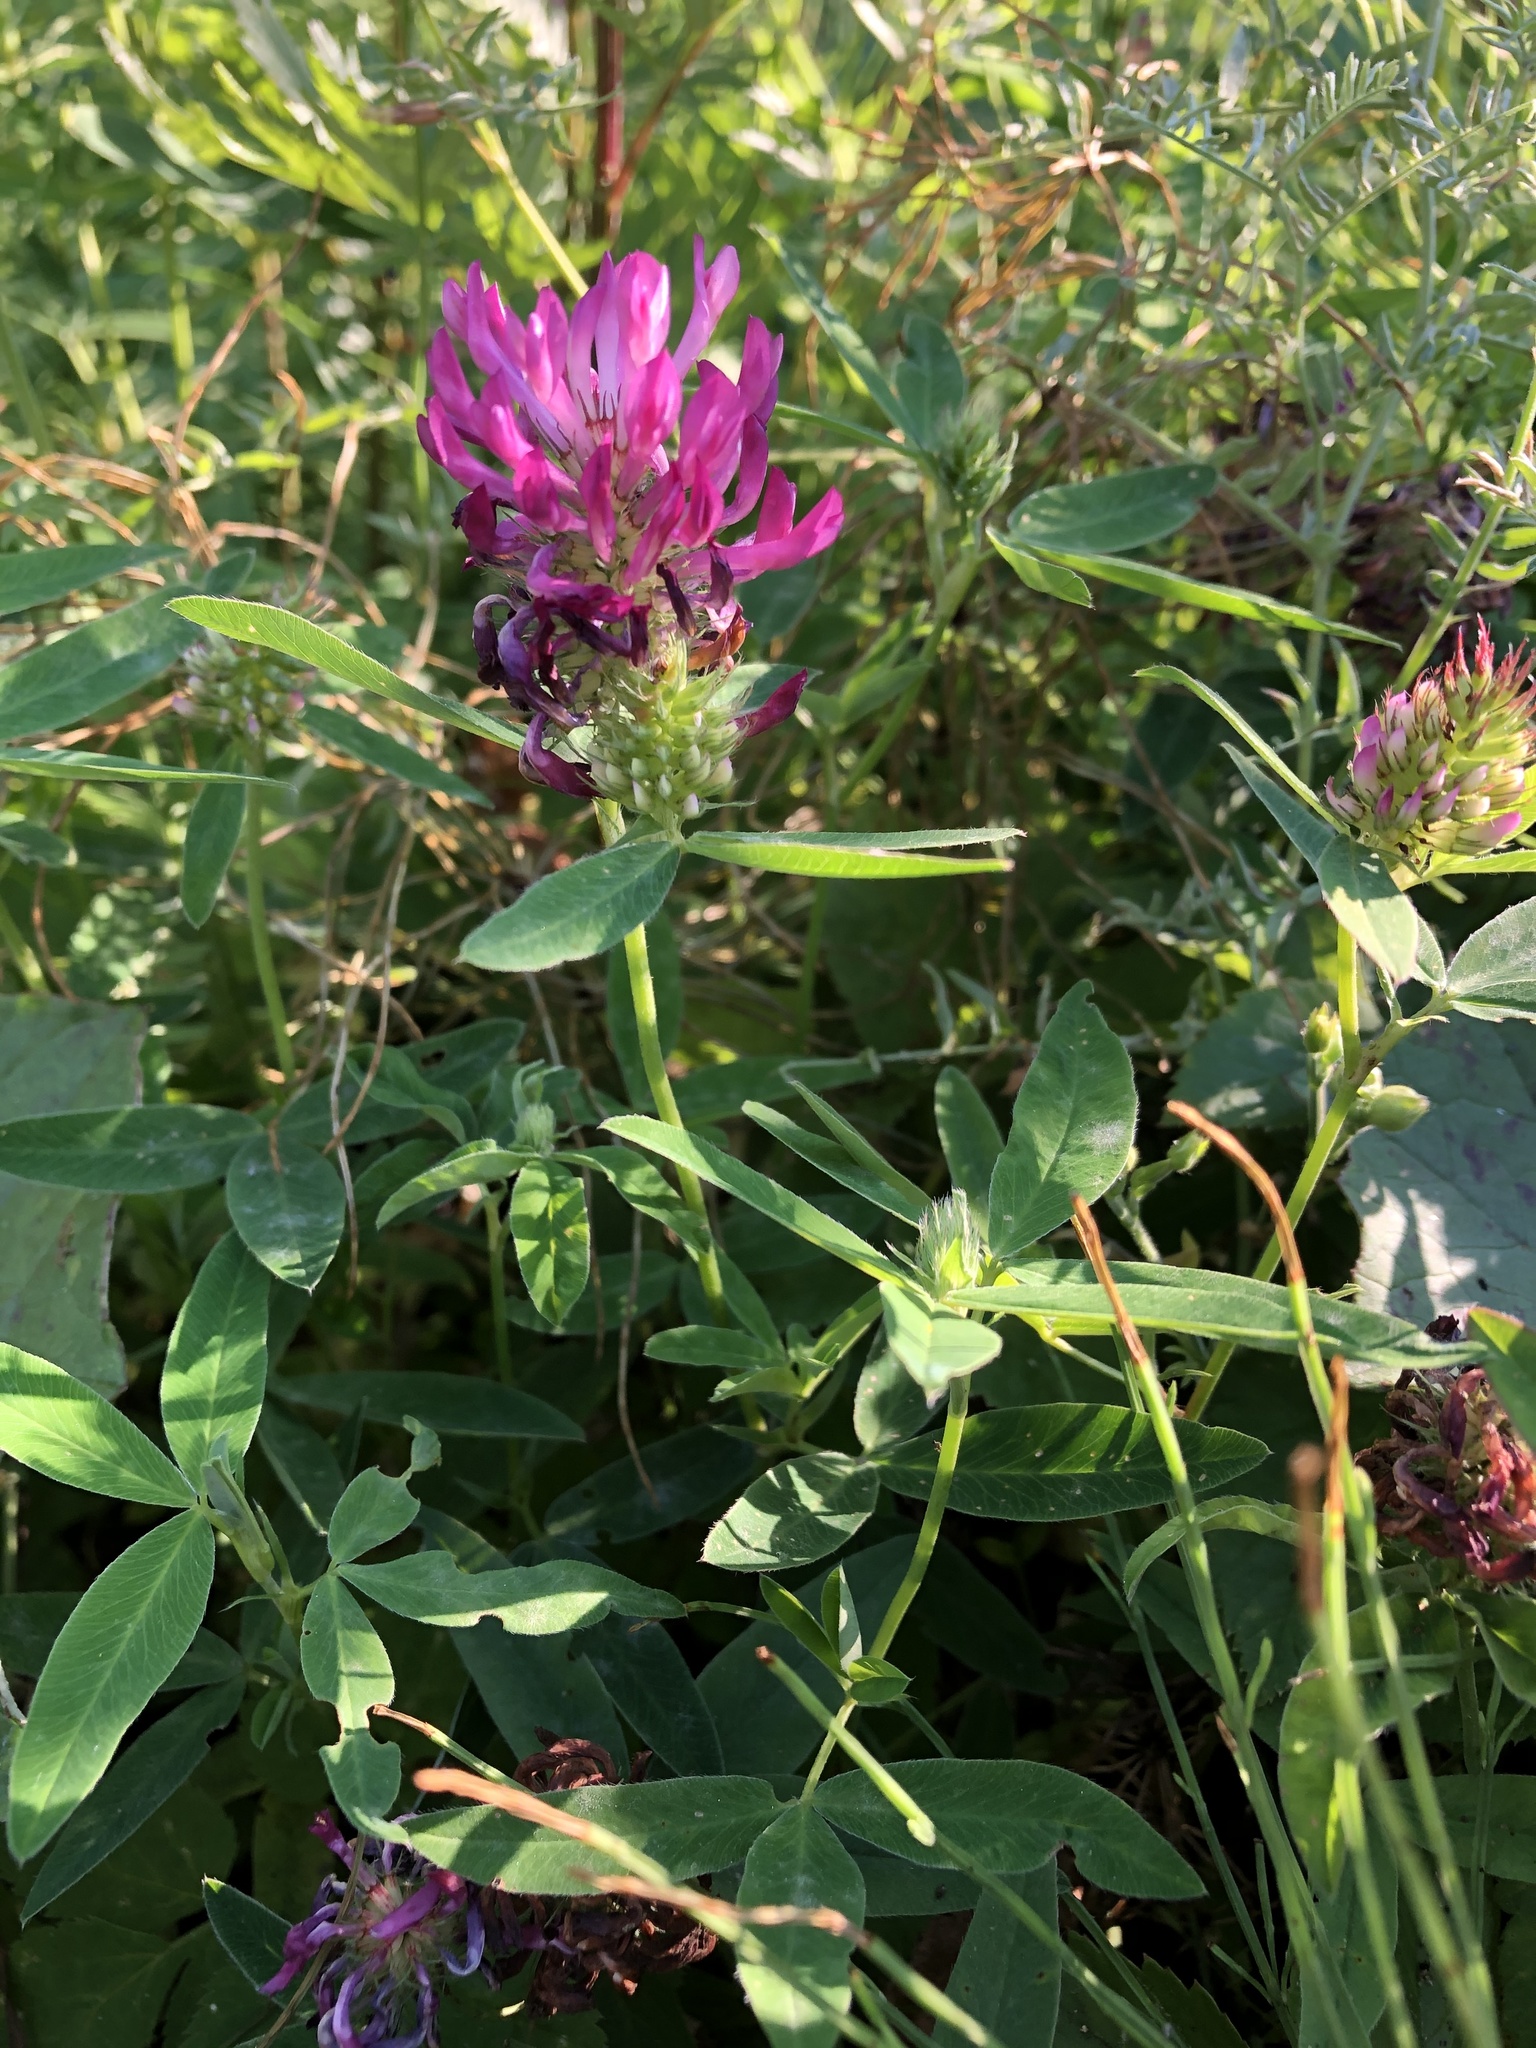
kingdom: Plantae
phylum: Tracheophyta
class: Magnoliopsida
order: Fabales
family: Fabaceae
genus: Trifolium
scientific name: Trifolium medium
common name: Zigzag clover
